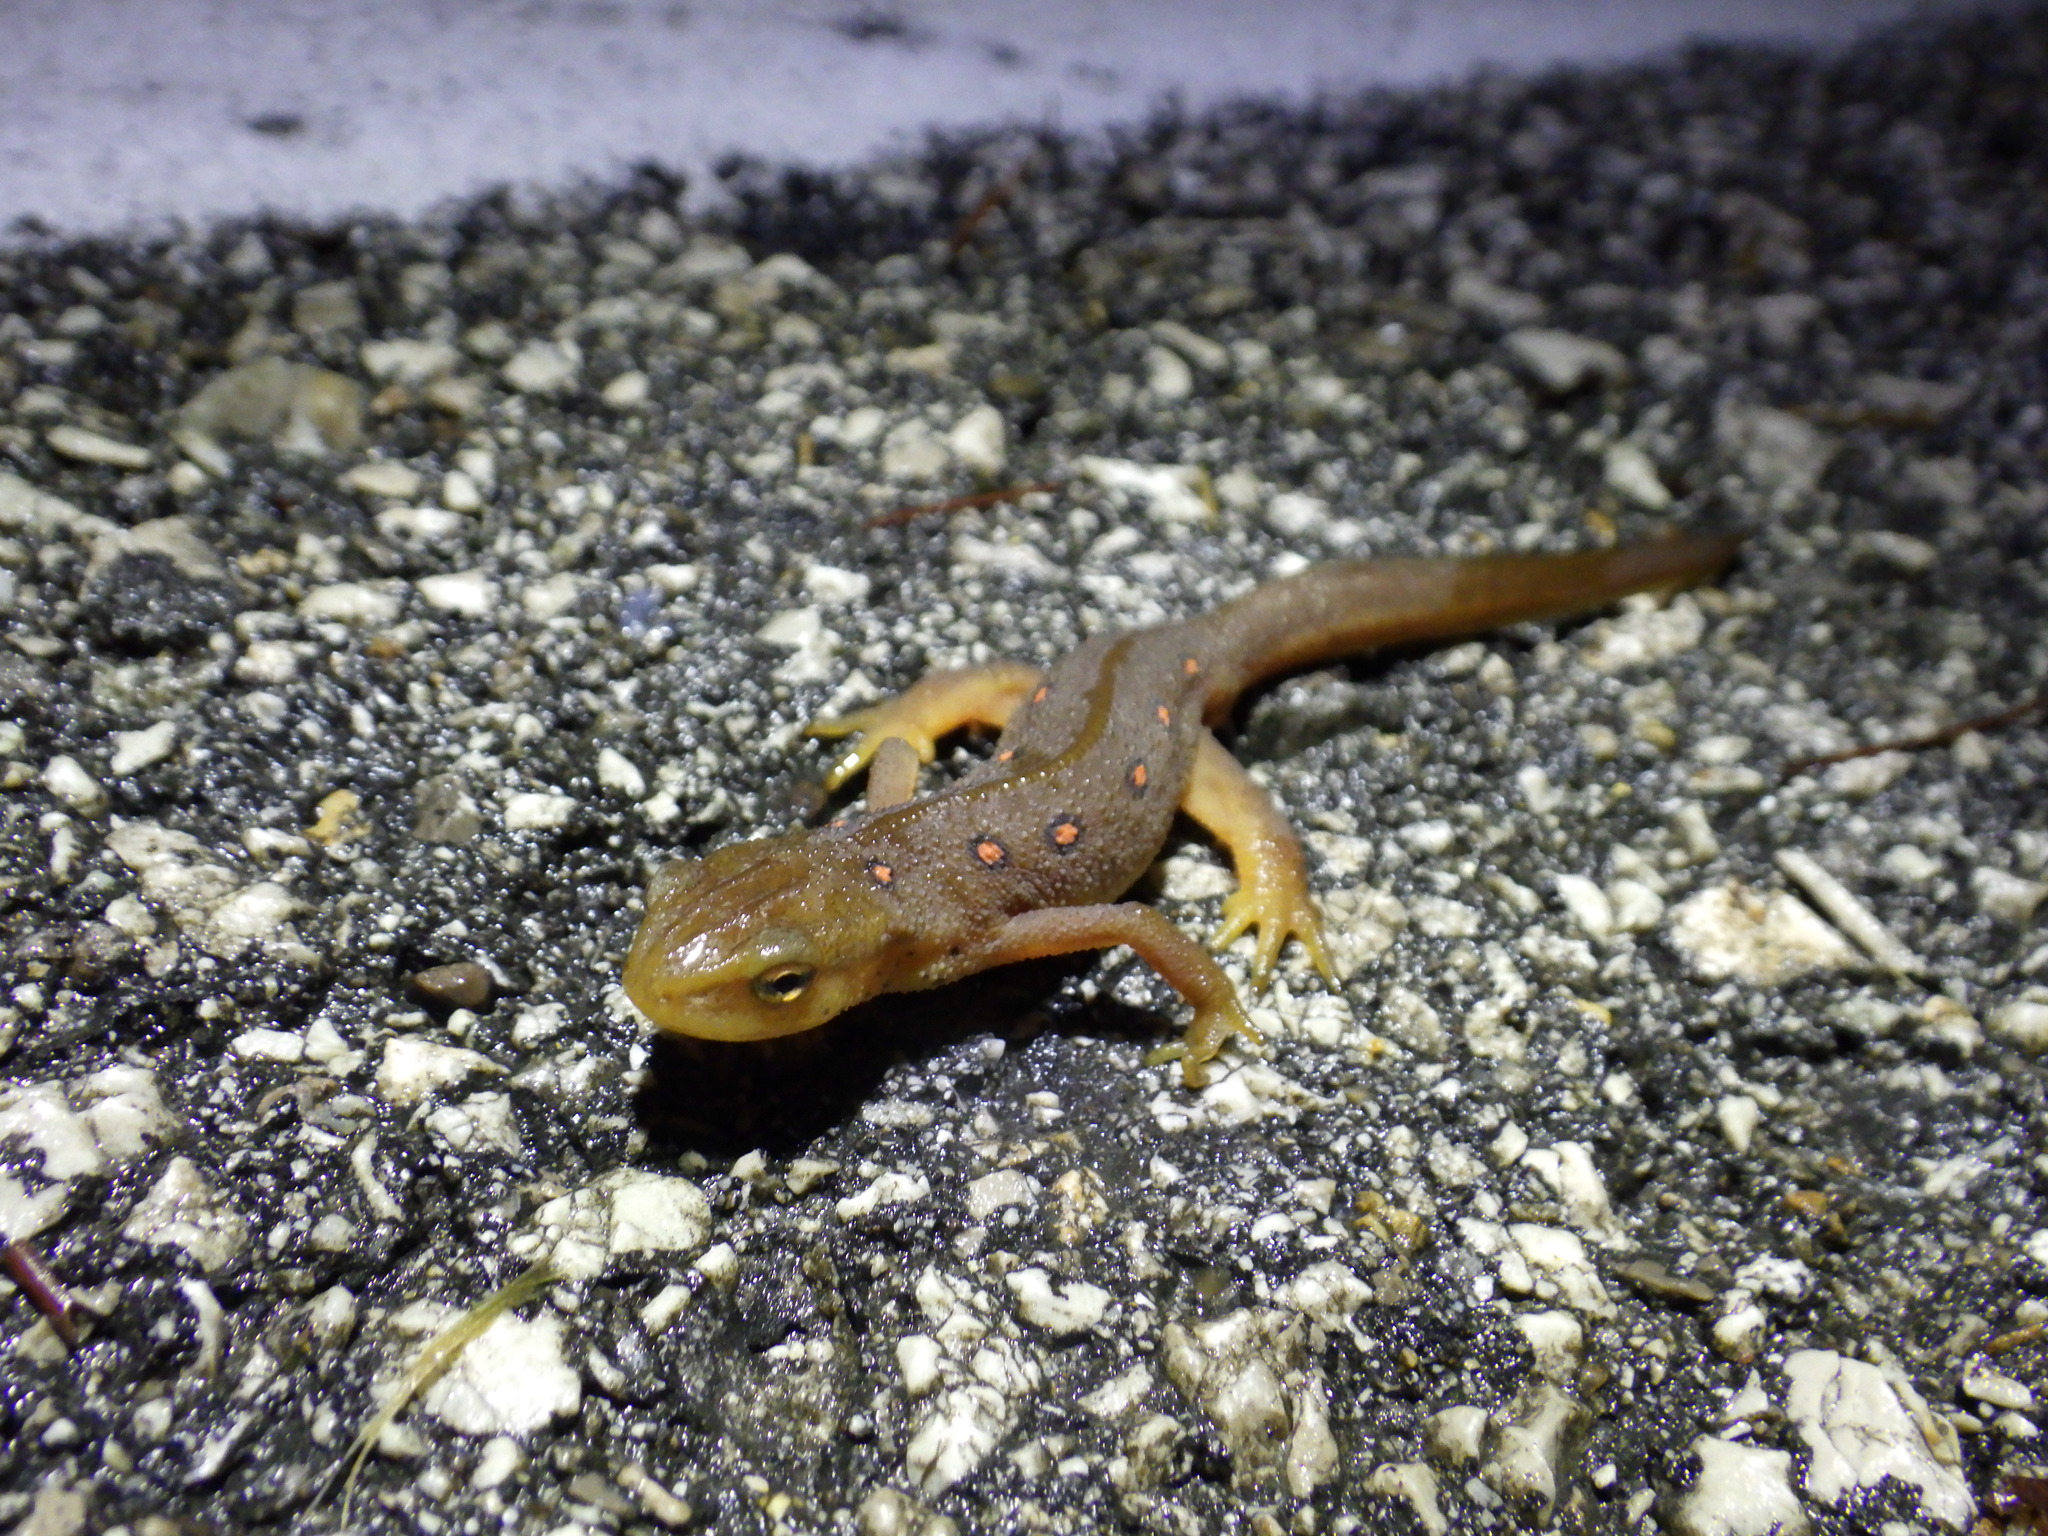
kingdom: Animalia
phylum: Chordata
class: Amphibia
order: Caudata
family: Salamandridae
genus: Notophthalmus
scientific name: Notophthalmus viridescens
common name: Eastern newt
